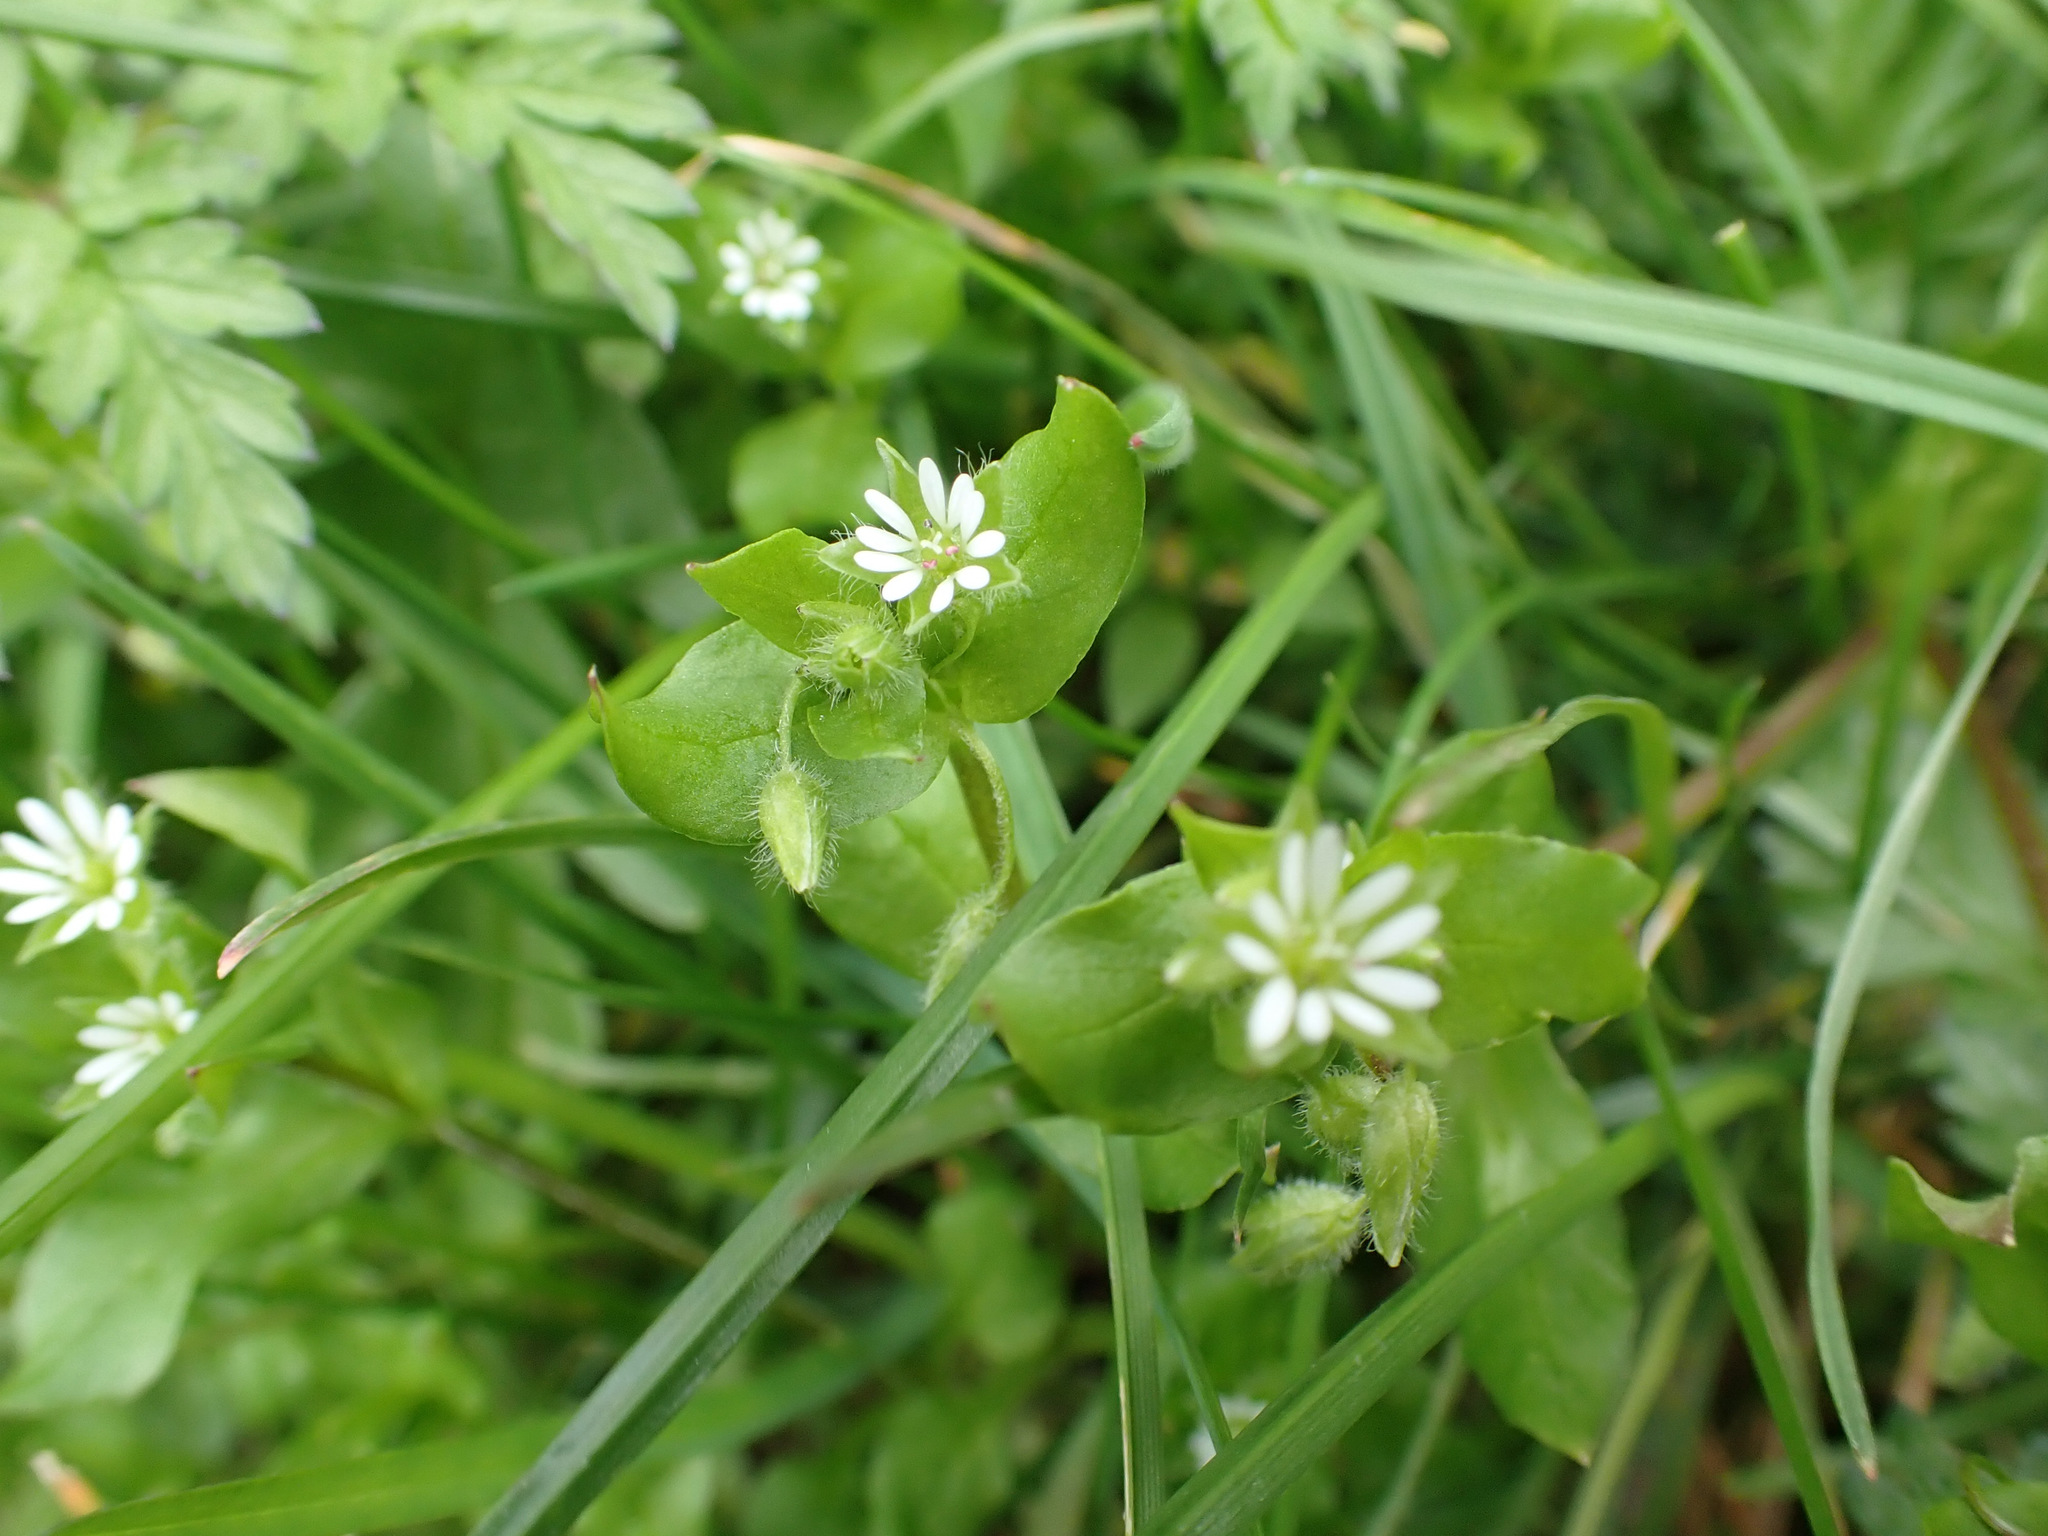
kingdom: Plantae
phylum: Tracheophyta
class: Magnoliopsida
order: Caryophyllales
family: Caryophyllaceae
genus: Stellaria
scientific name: Stellaria media
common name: Common chickweed
